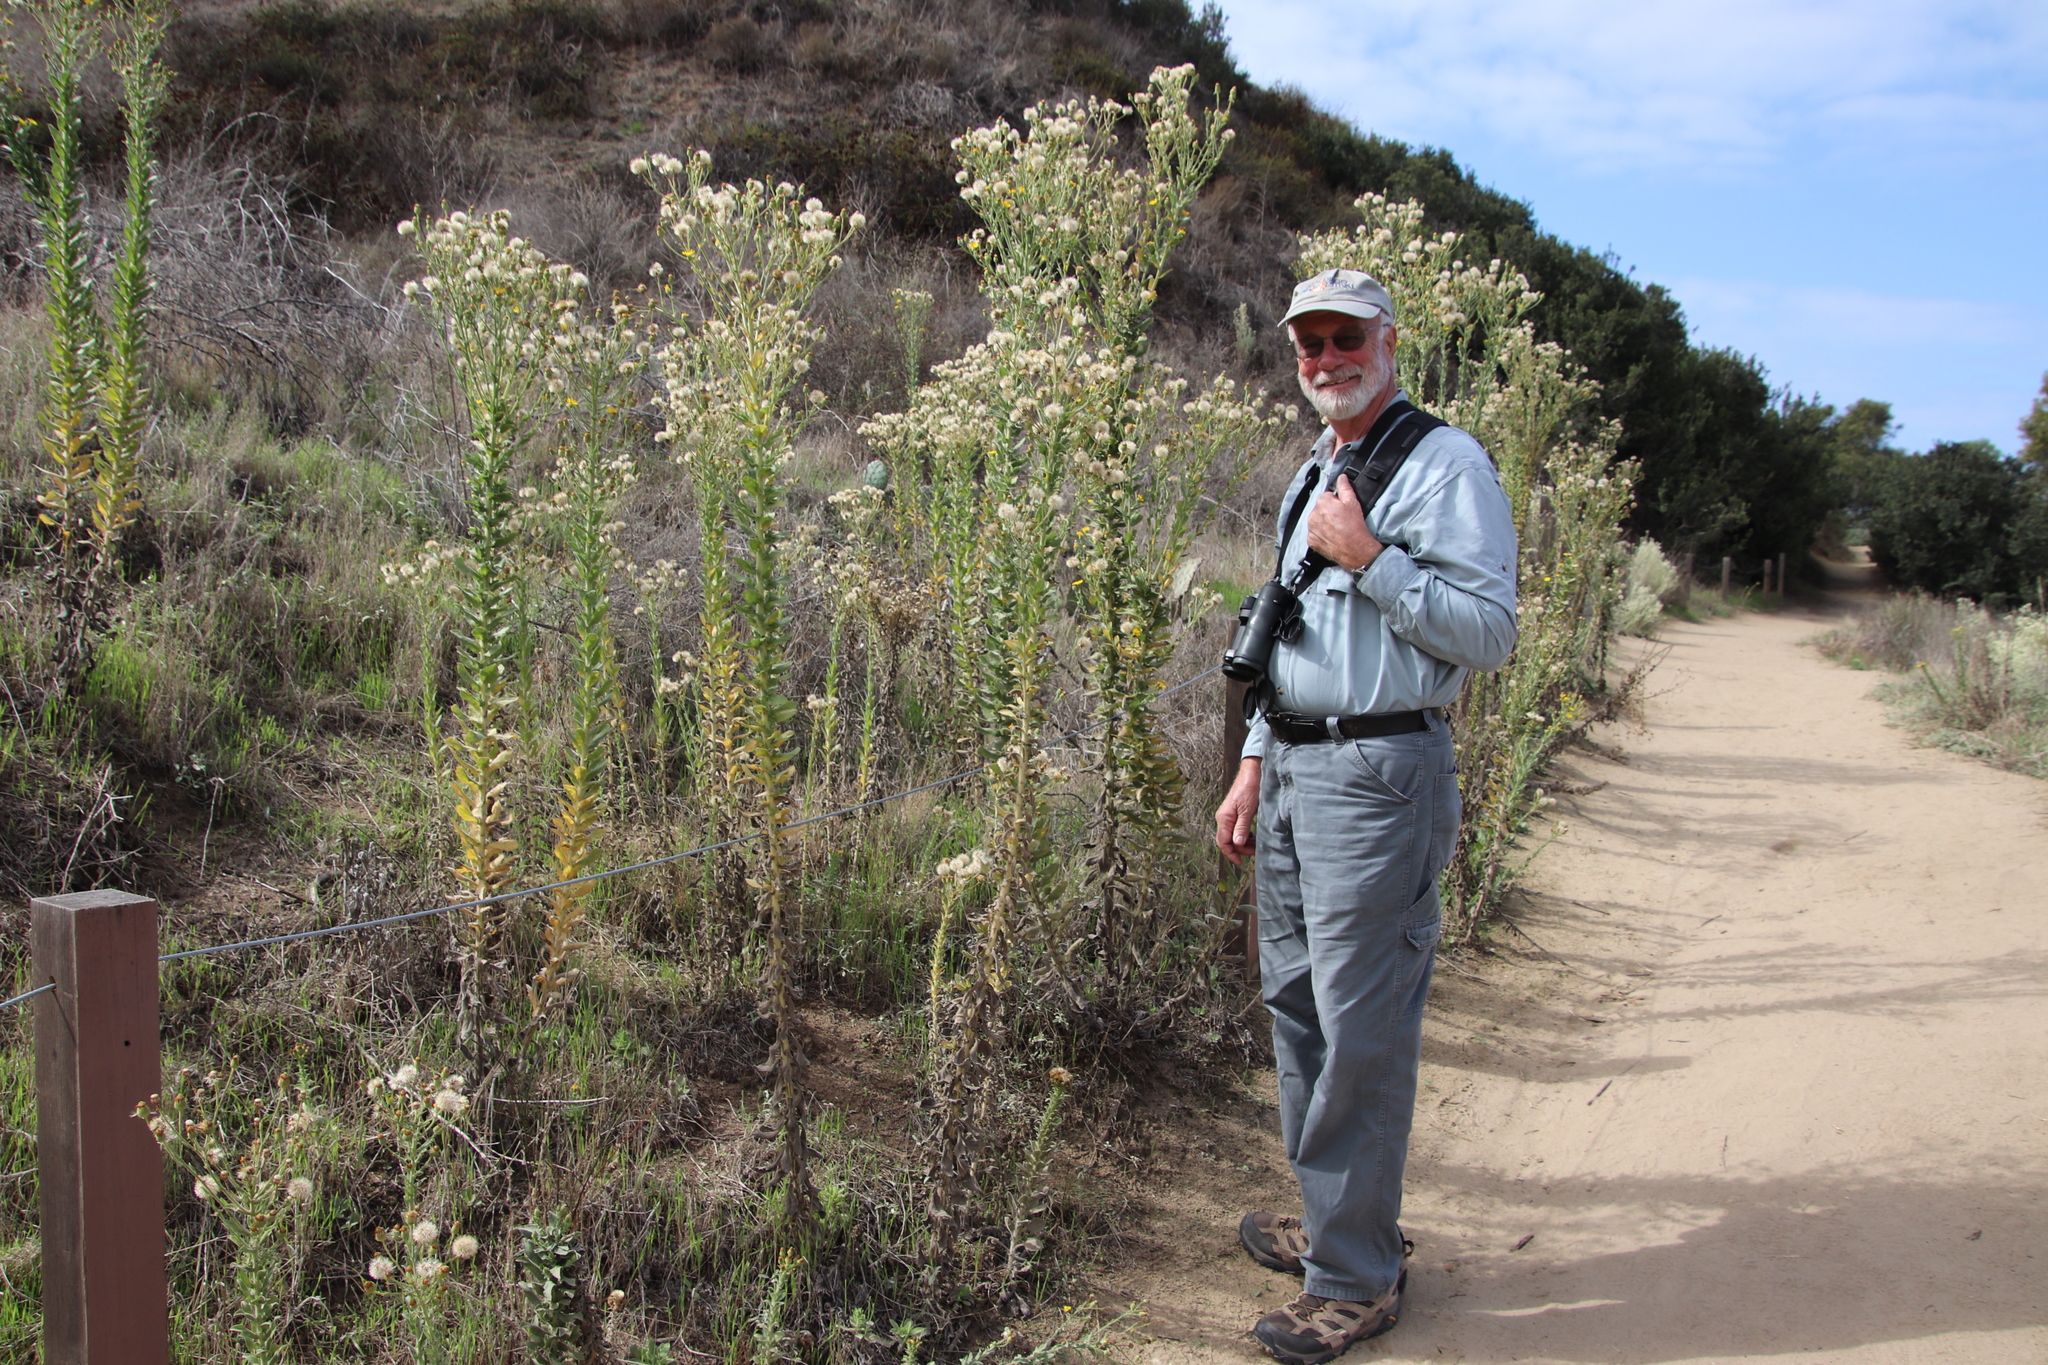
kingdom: Plantae
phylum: Tracheophyta
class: Magnoliopsida
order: Asterales
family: Asteraceae
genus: Heterotheca
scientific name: Heterotheca grandiflora
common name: Telegraphweed
